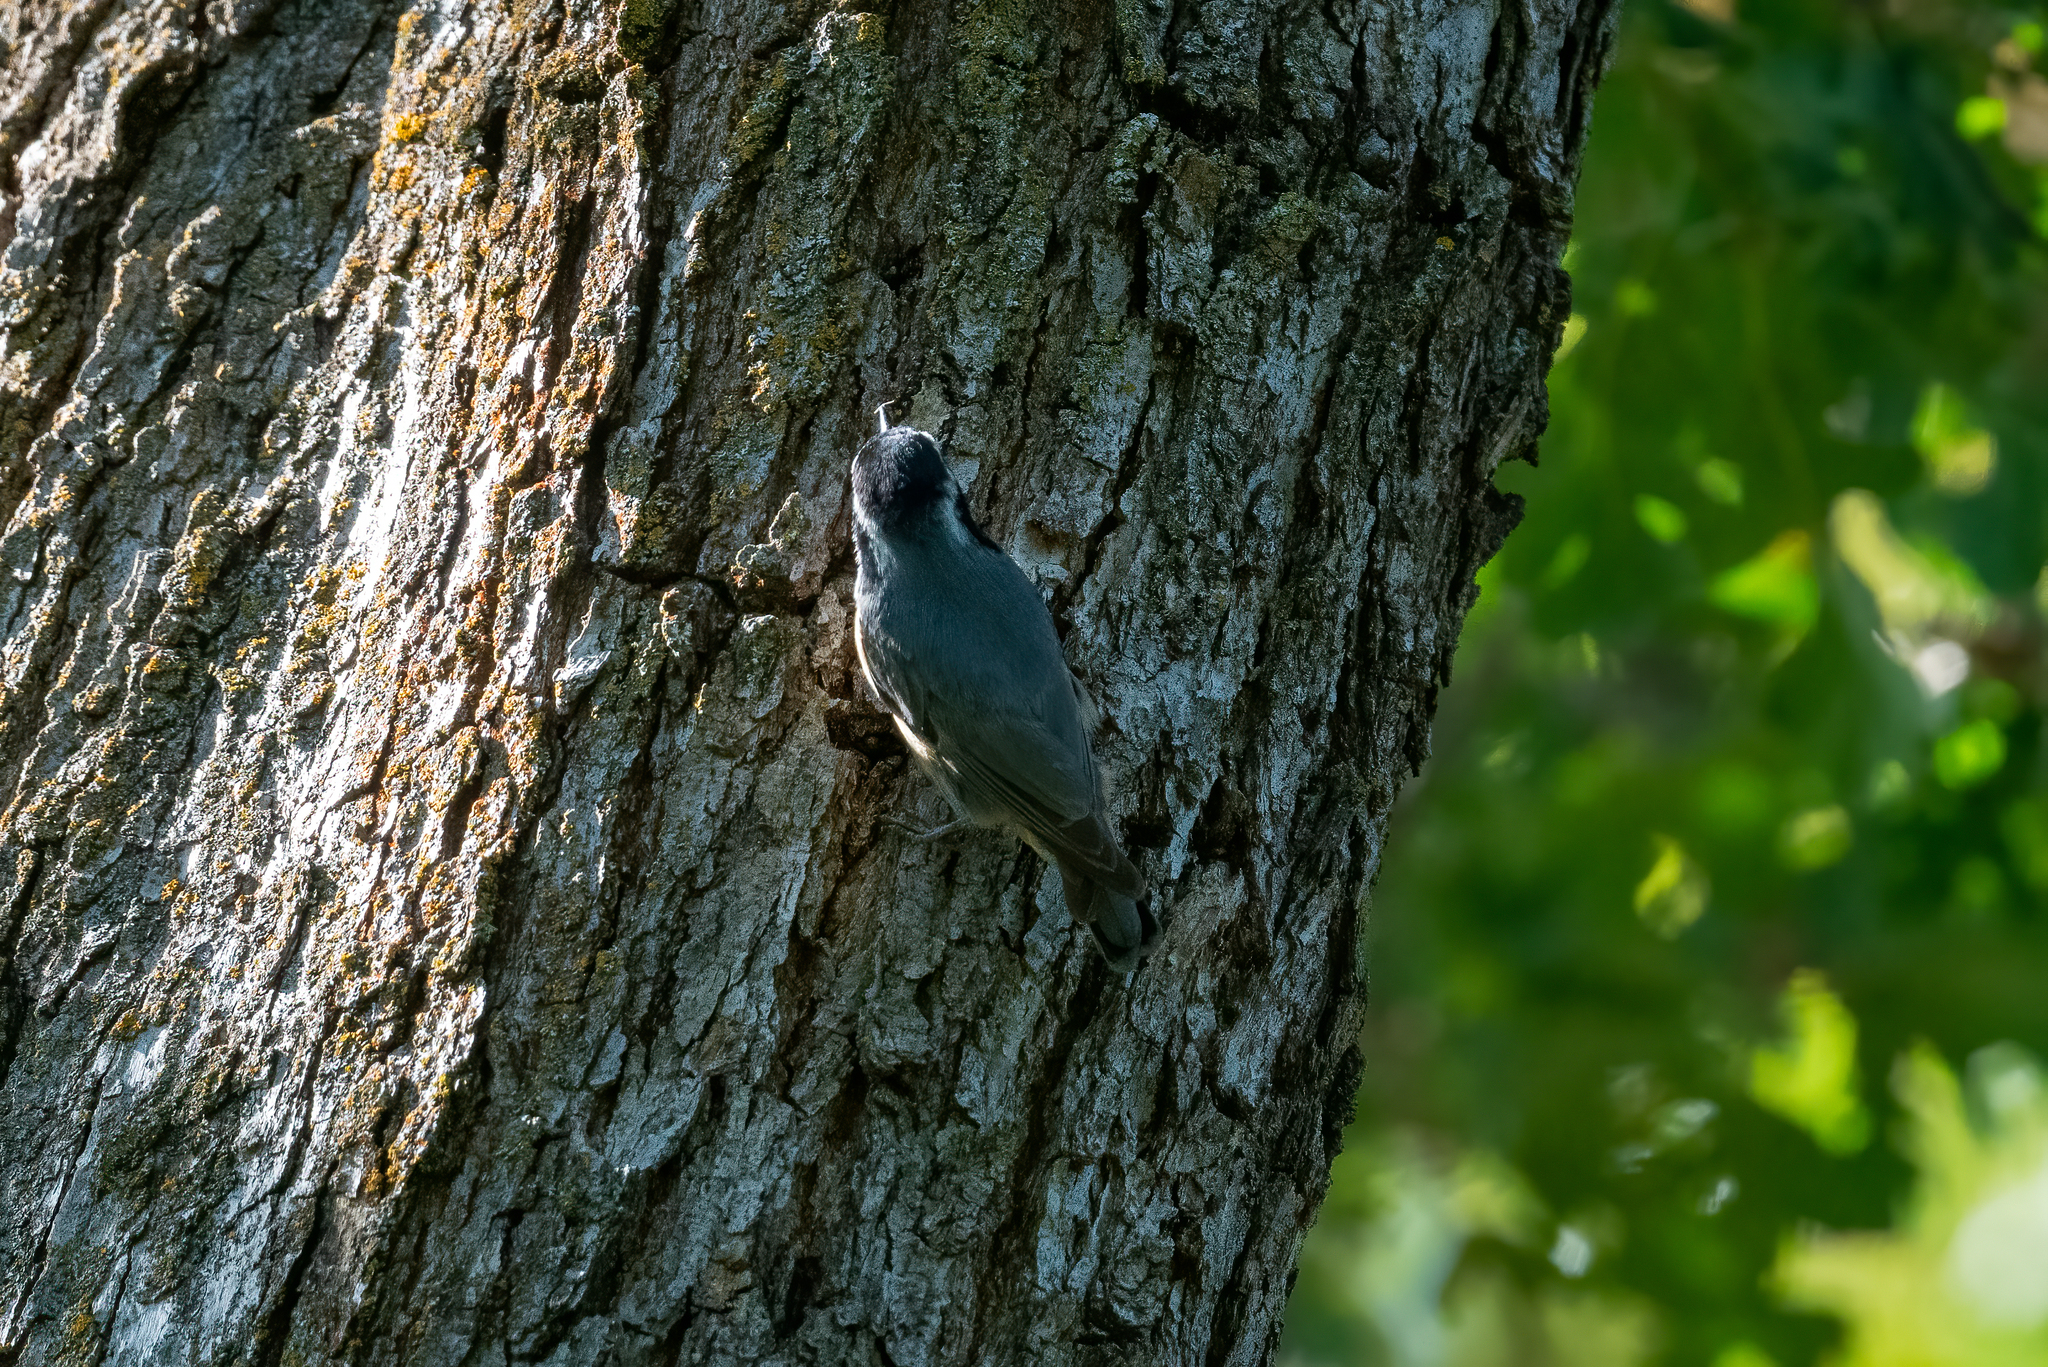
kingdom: Animalia
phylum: Chordata
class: Aves
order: Passeriformes
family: Sittidae
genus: Sitta
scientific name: Sitta canadensis
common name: Red-breasted nuthatch
